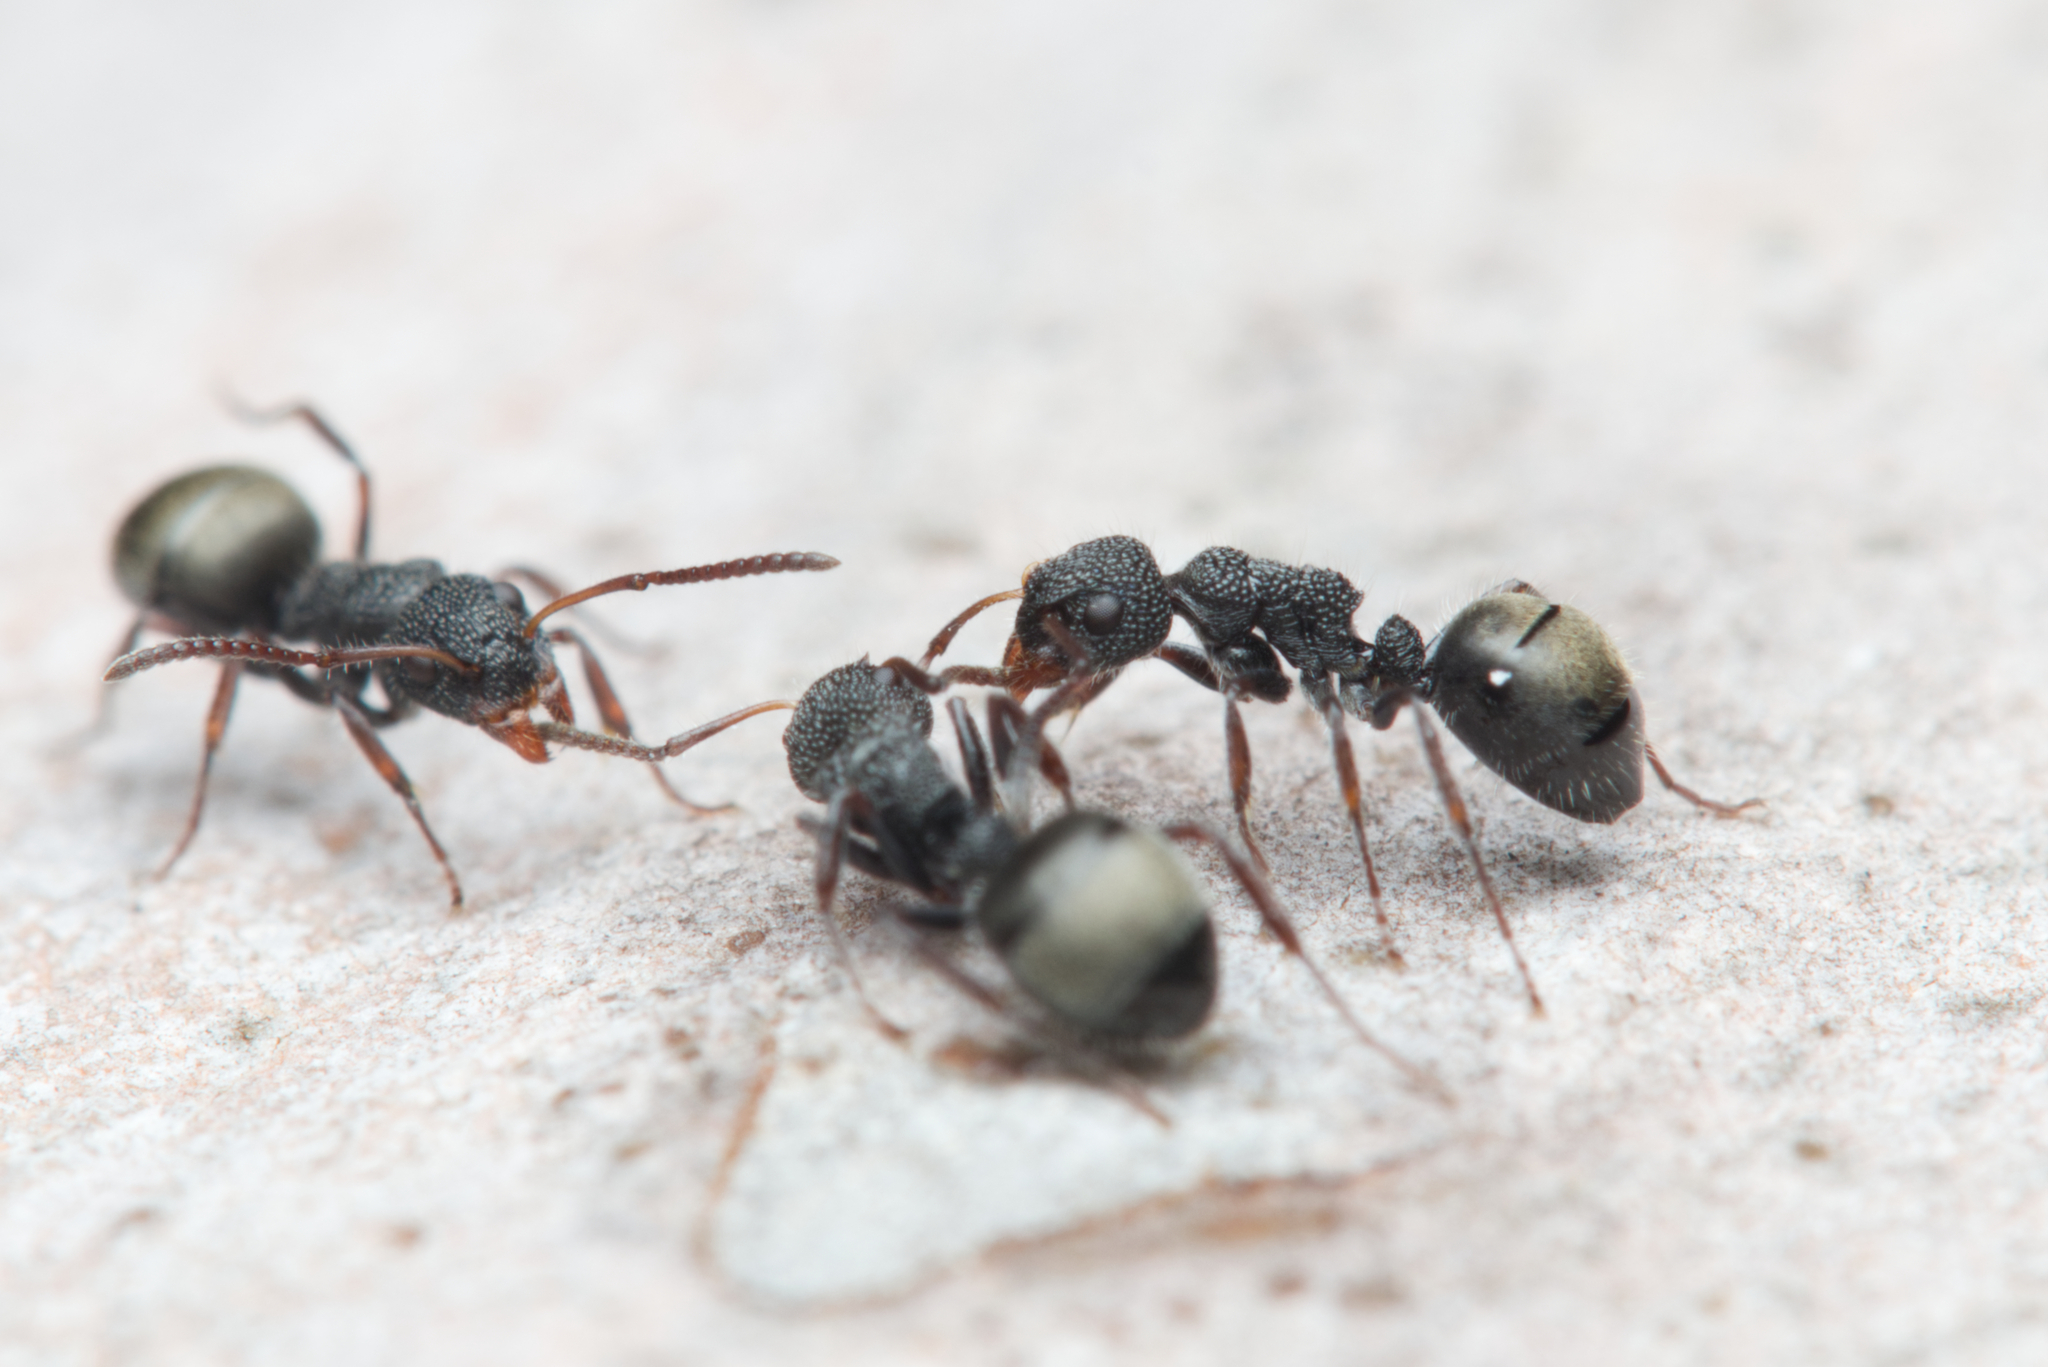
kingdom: Animalia
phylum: Arthropoda
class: Insecta
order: Hymenoptera
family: Formicidae
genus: Dolichoderus
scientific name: Dolichoderus scrobiculatus
